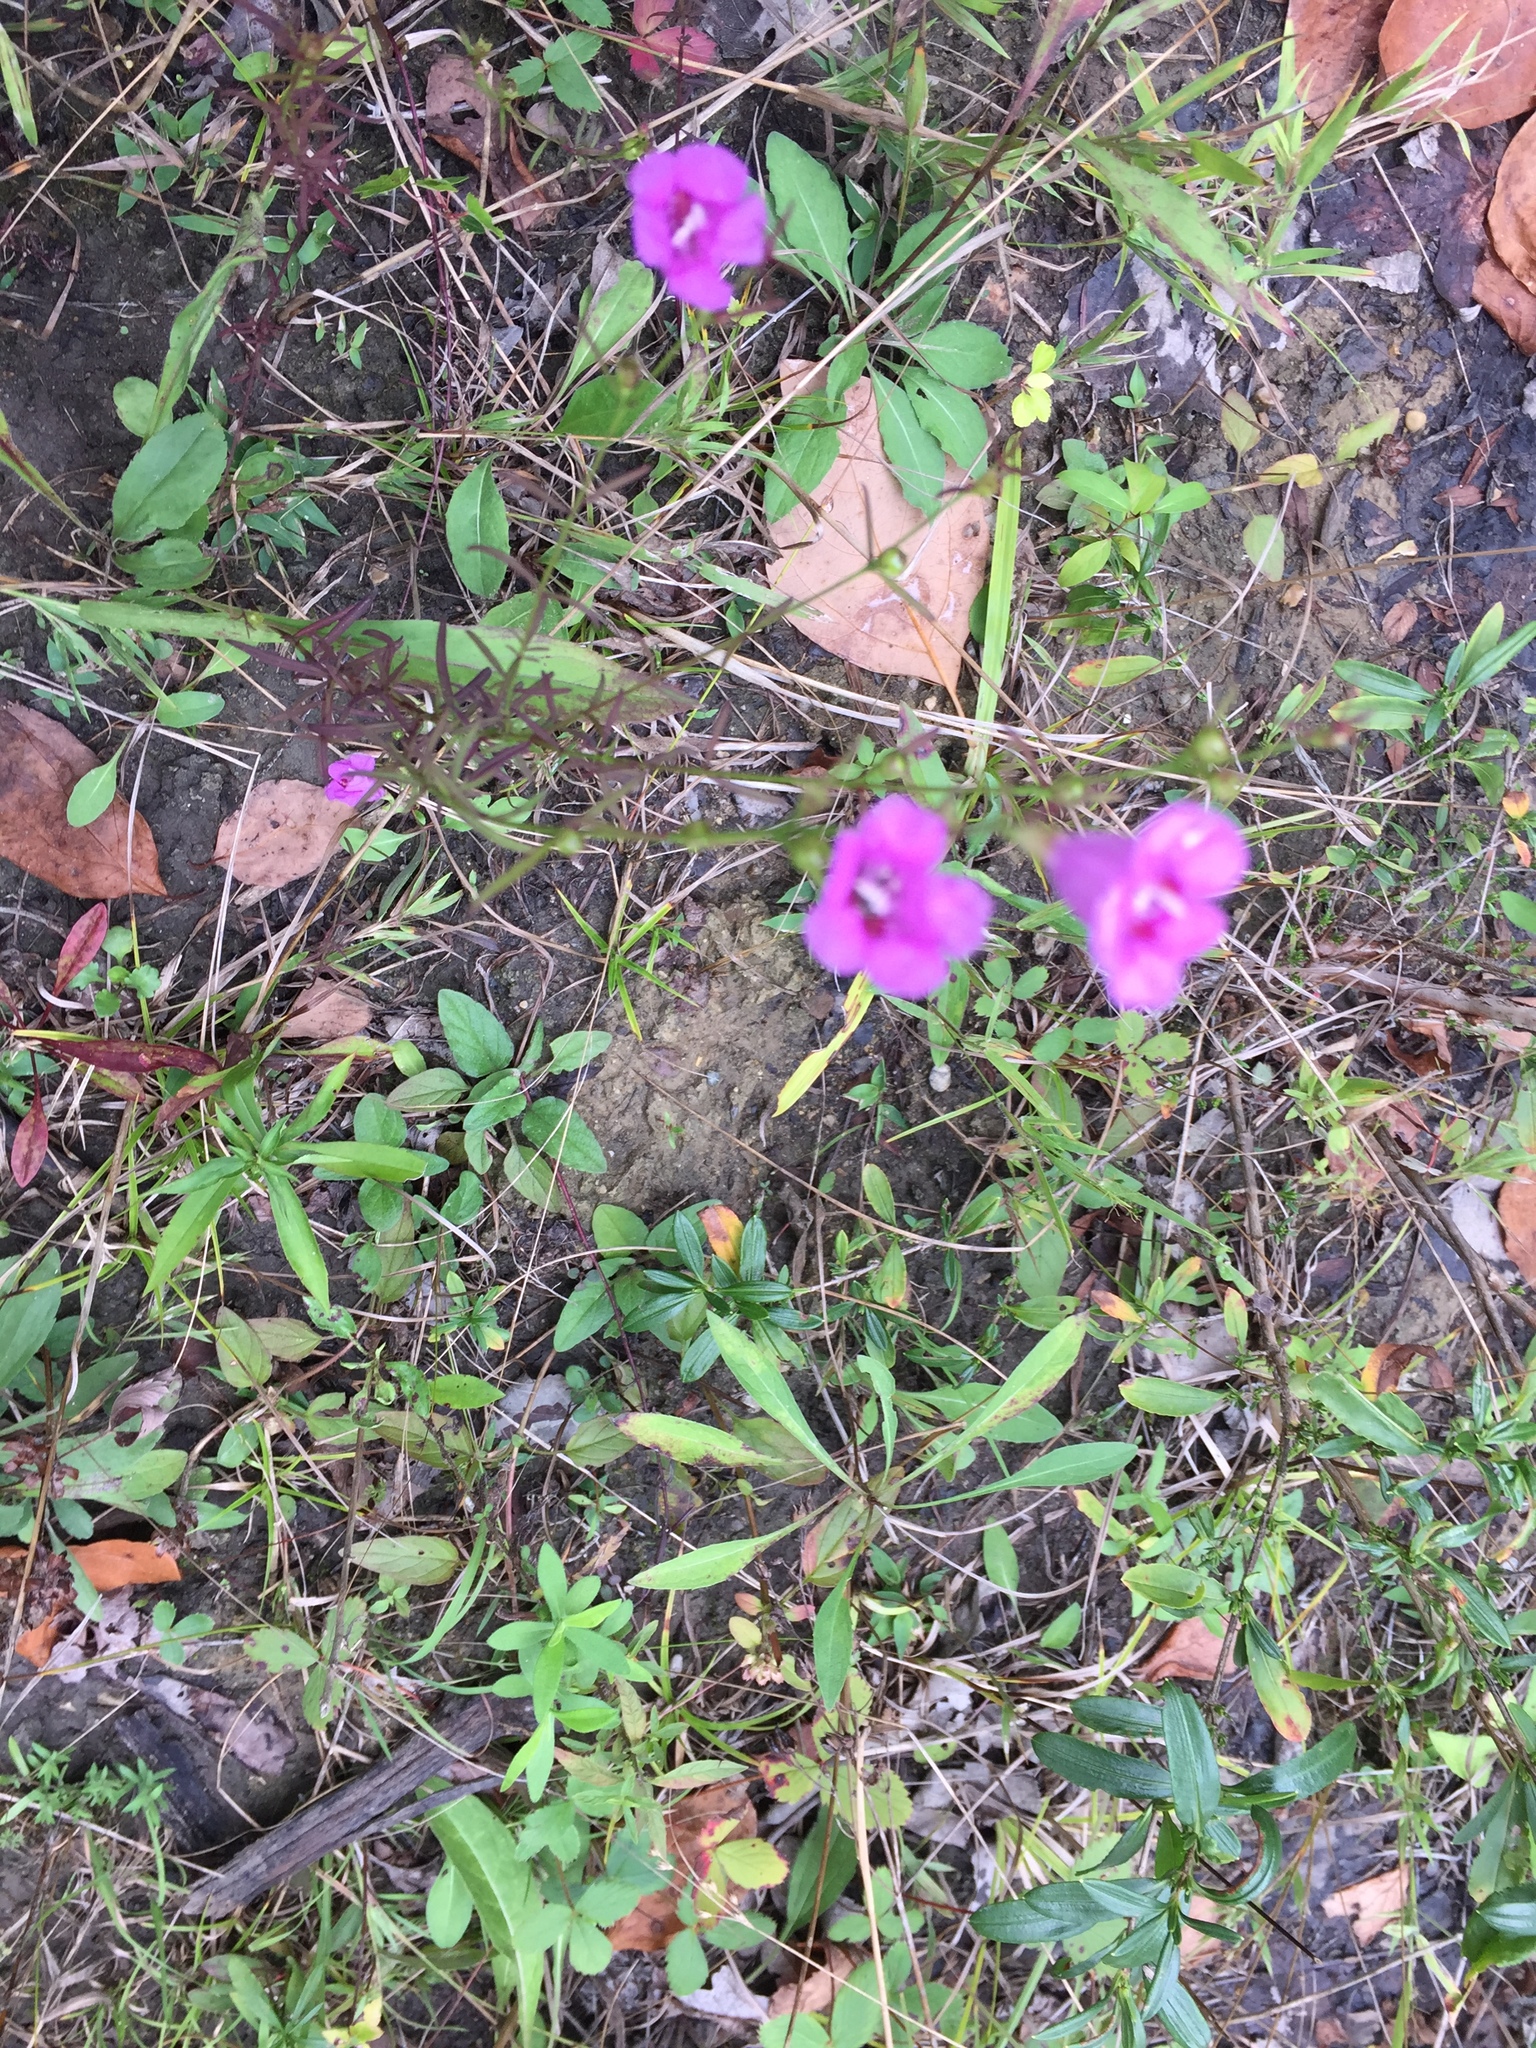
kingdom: Plantae
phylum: Tracheophyta
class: Magnoliopsida
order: Lamiales
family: Orobanchaceae
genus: Agalinis
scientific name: Agalinis heterophylla
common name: Prairie agalinis
